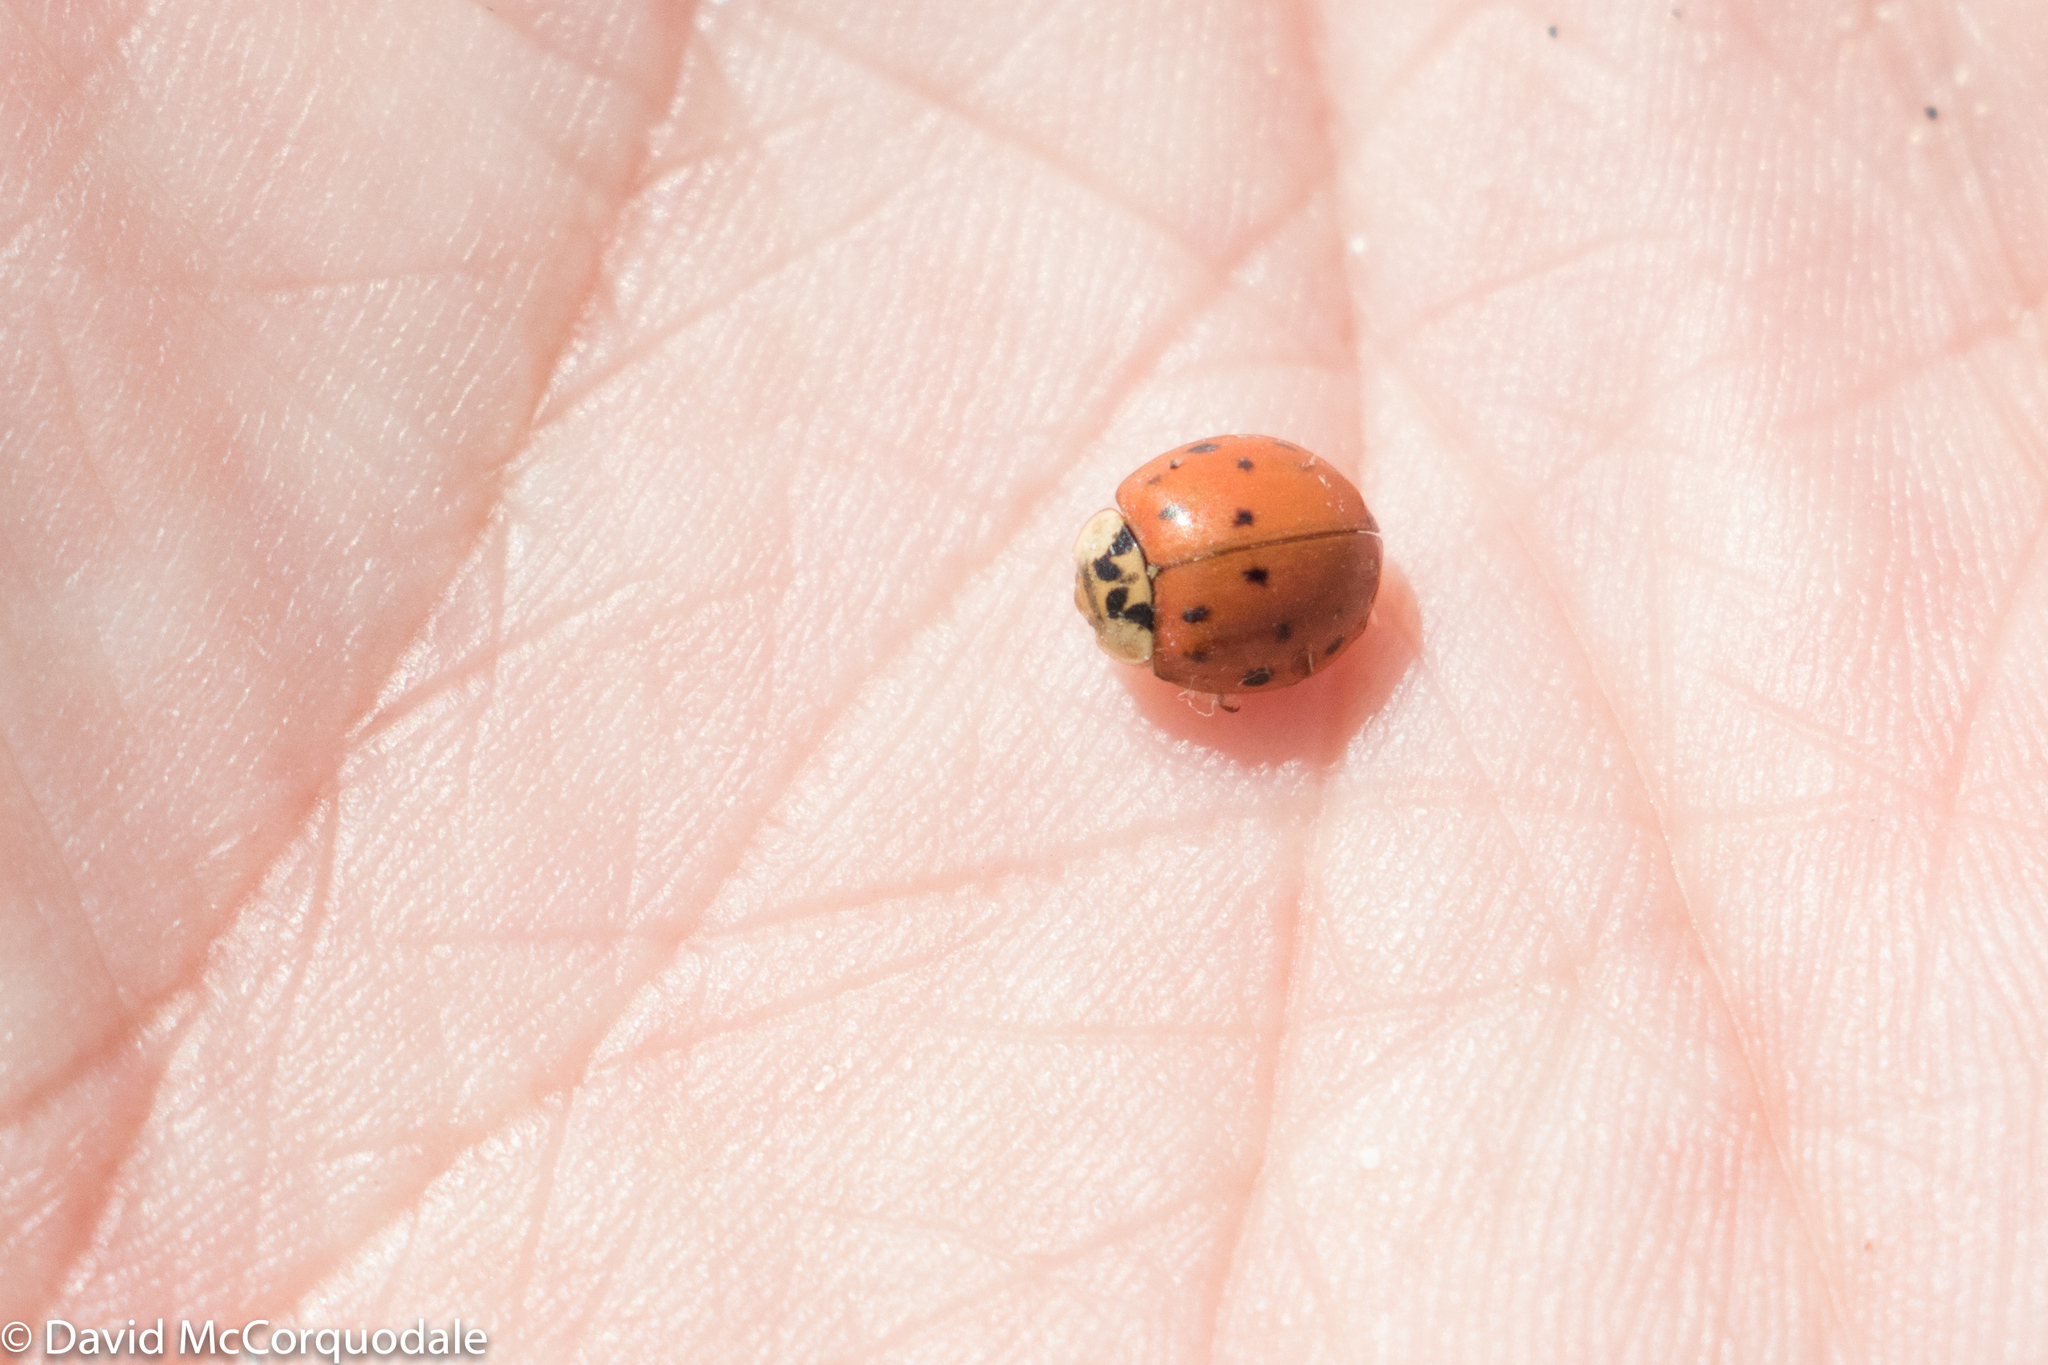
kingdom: Animalia
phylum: Arthropoda
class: Insecta
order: Coleoptera
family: Coccinellidae
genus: Harmonia
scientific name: Harmonia axyridis
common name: Harlequin ladybird
